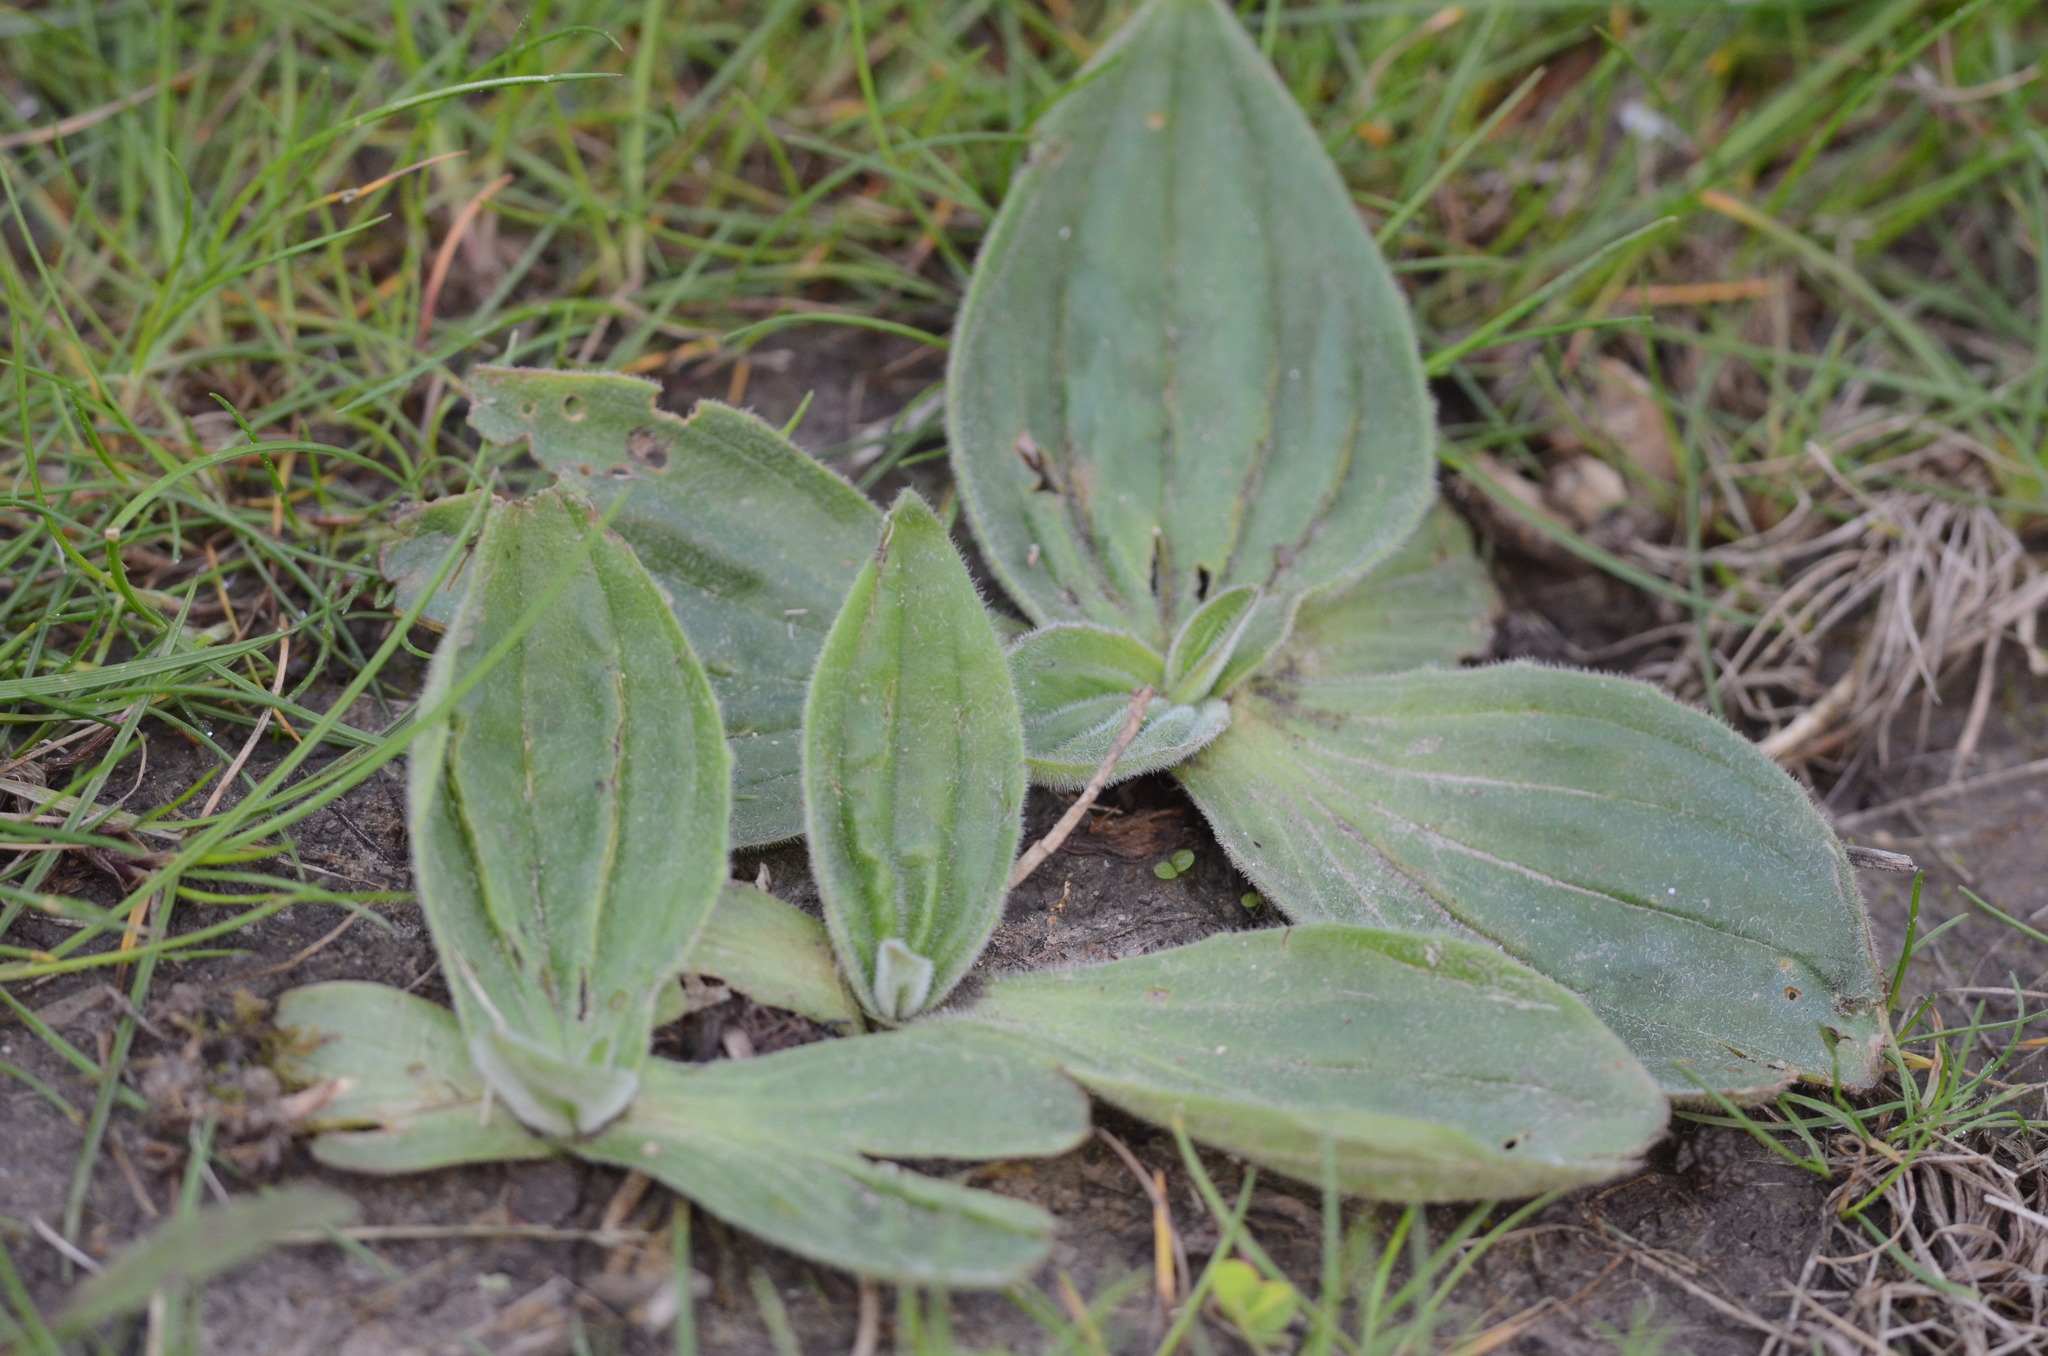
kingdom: Plantae
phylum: Tracheophyta
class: Magnoliopsida
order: Lamiales
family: Plantaginaceae
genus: Plantago
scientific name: Plantago media
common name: Hoary plantain
